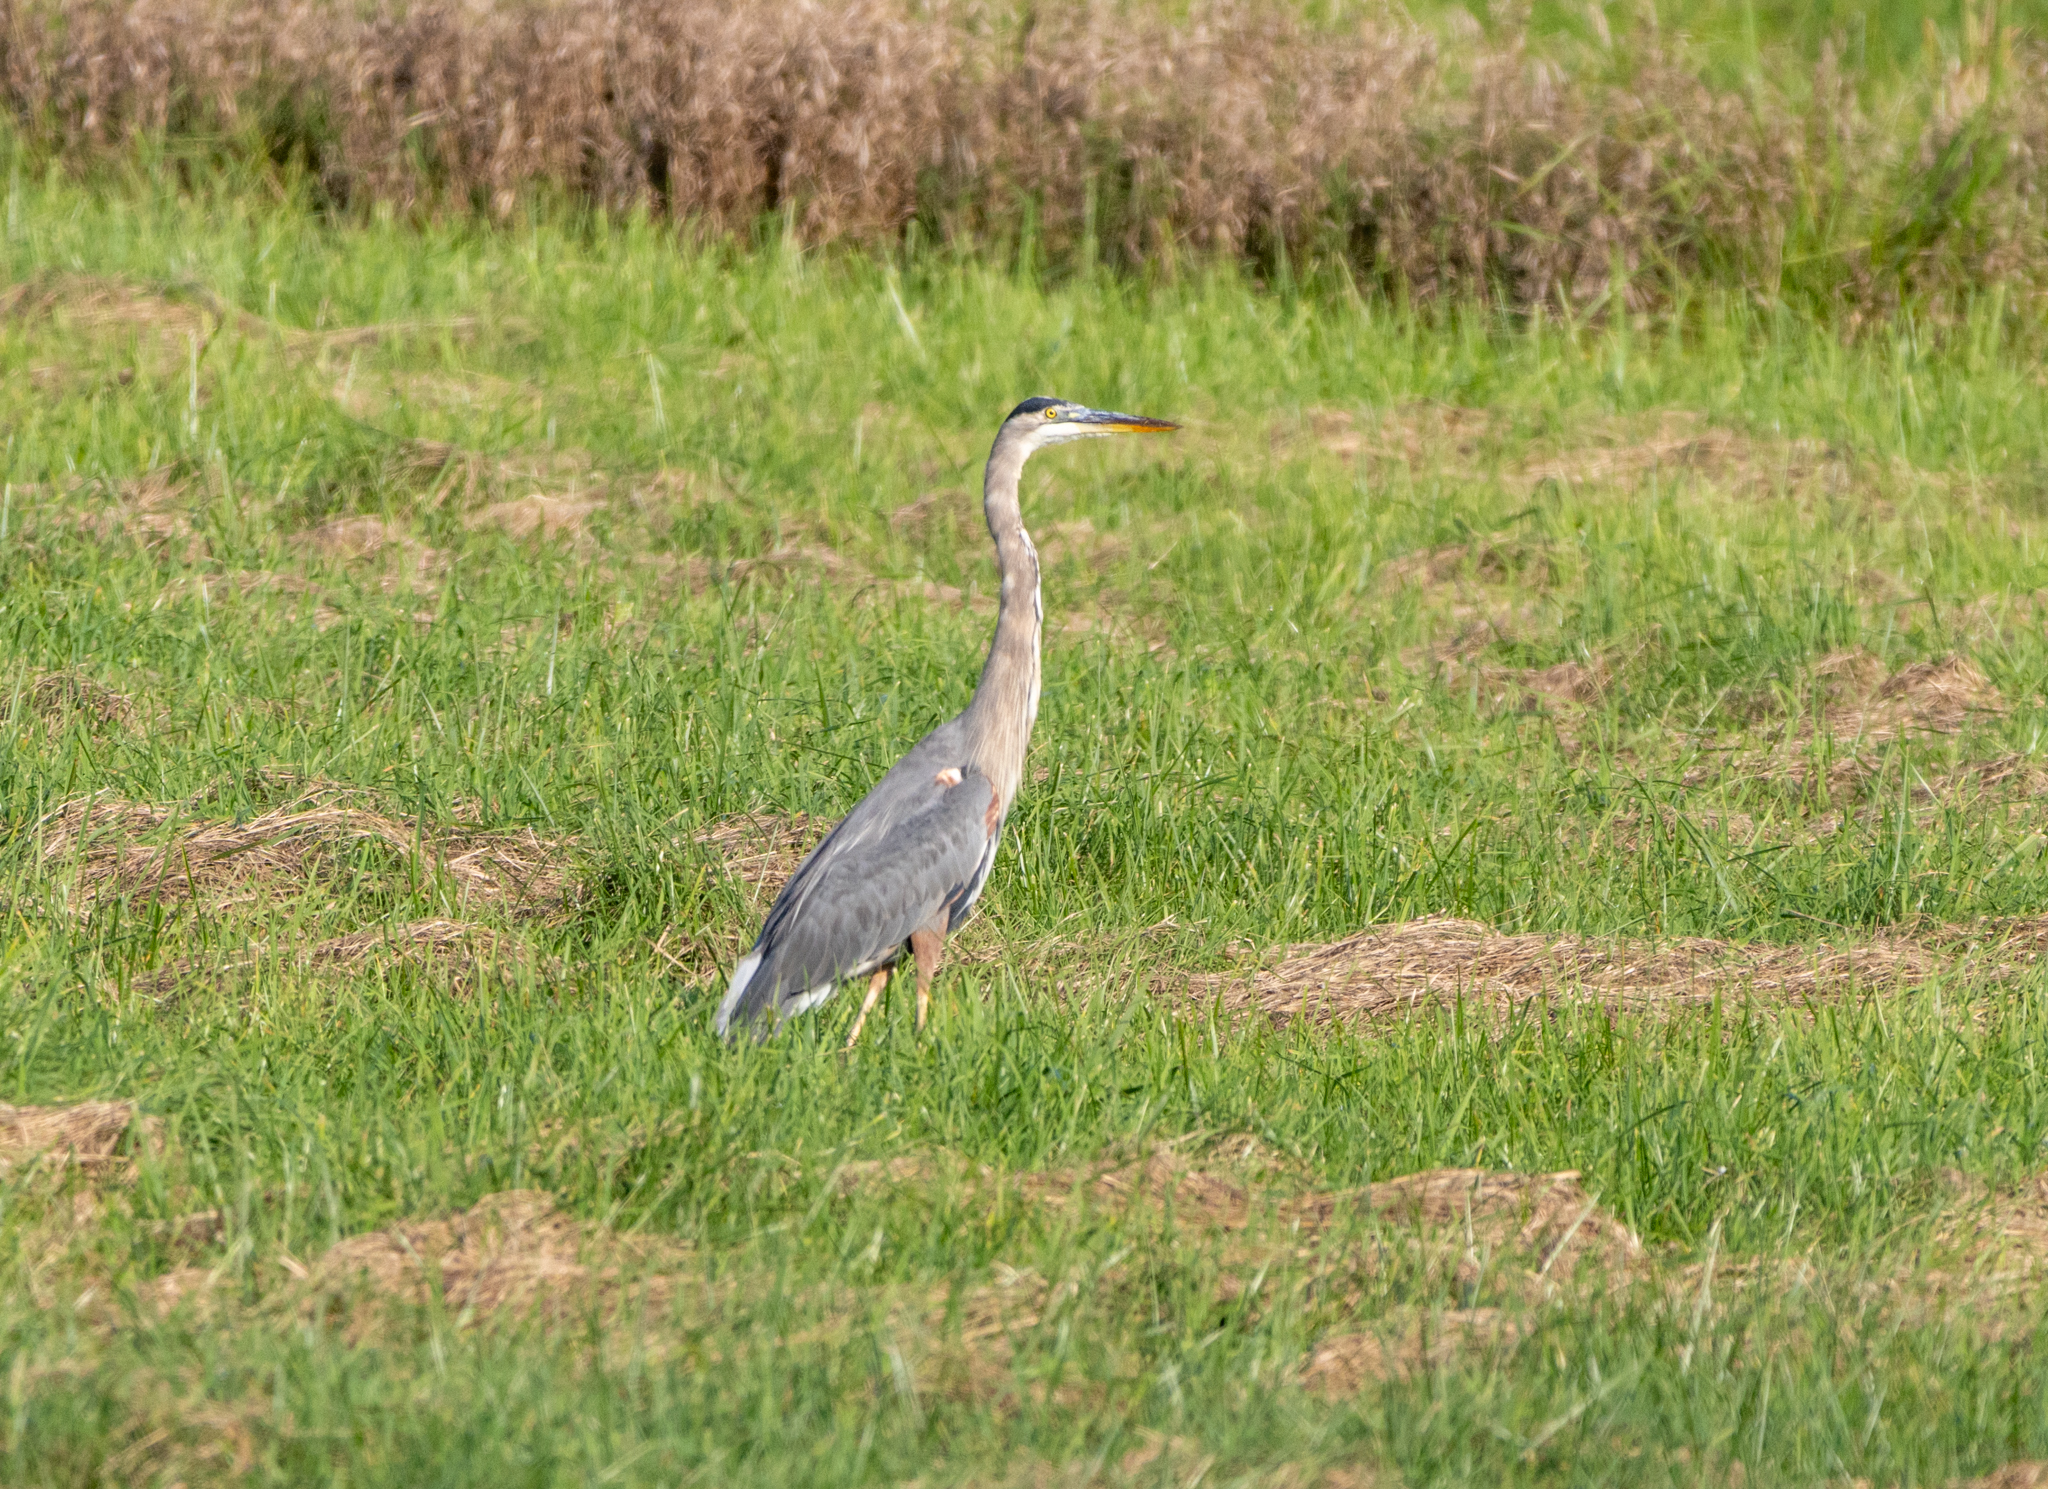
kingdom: Animalia
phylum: Chordata
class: Aves
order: Pelecaniformes
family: Ardeidae
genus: Ardea
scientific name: Ardea herodias
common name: Great blue heron
